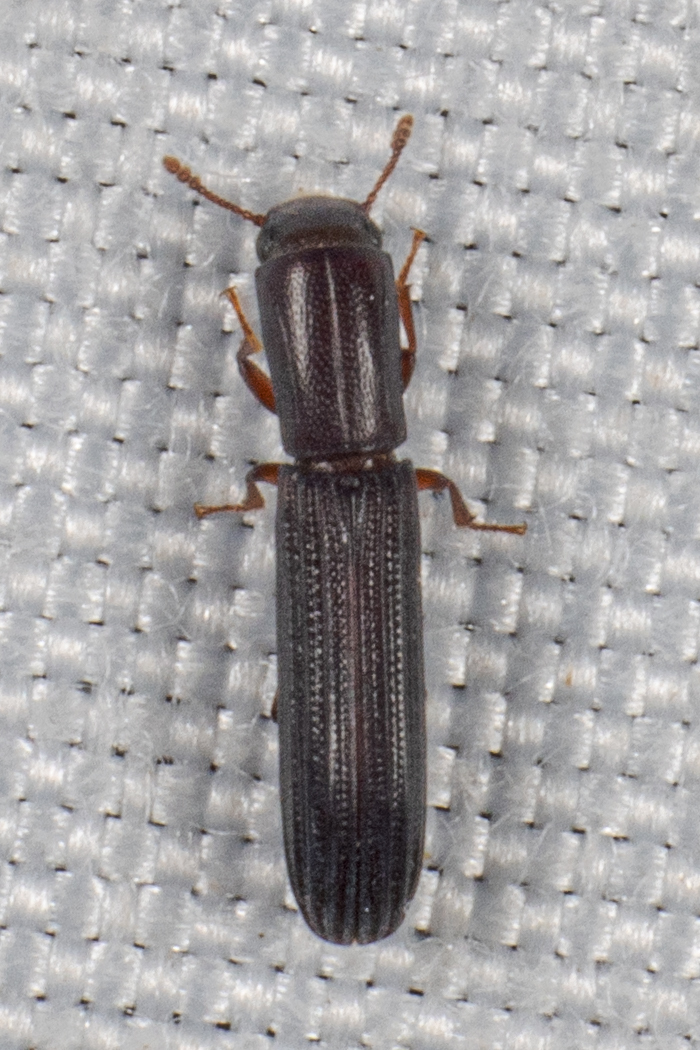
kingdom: Animalia
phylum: Arthropoda
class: Insecta
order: Coleoptera
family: Zopheridae
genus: Colydium
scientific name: Colydium lineola
